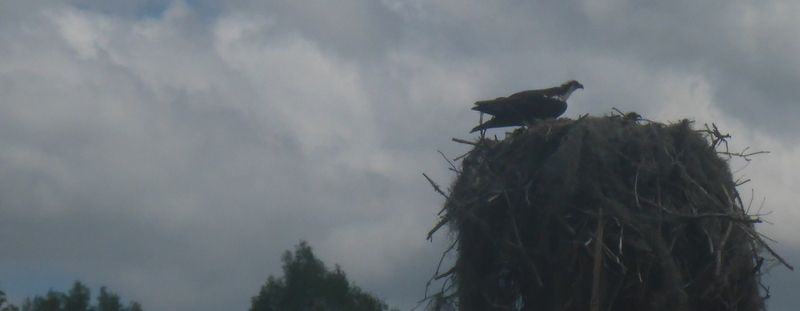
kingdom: Animalia
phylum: Chordata
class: Aves
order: Accipitriformes
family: Pandionidae
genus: Pandion
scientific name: Pandion haliaetus
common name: Osprey
